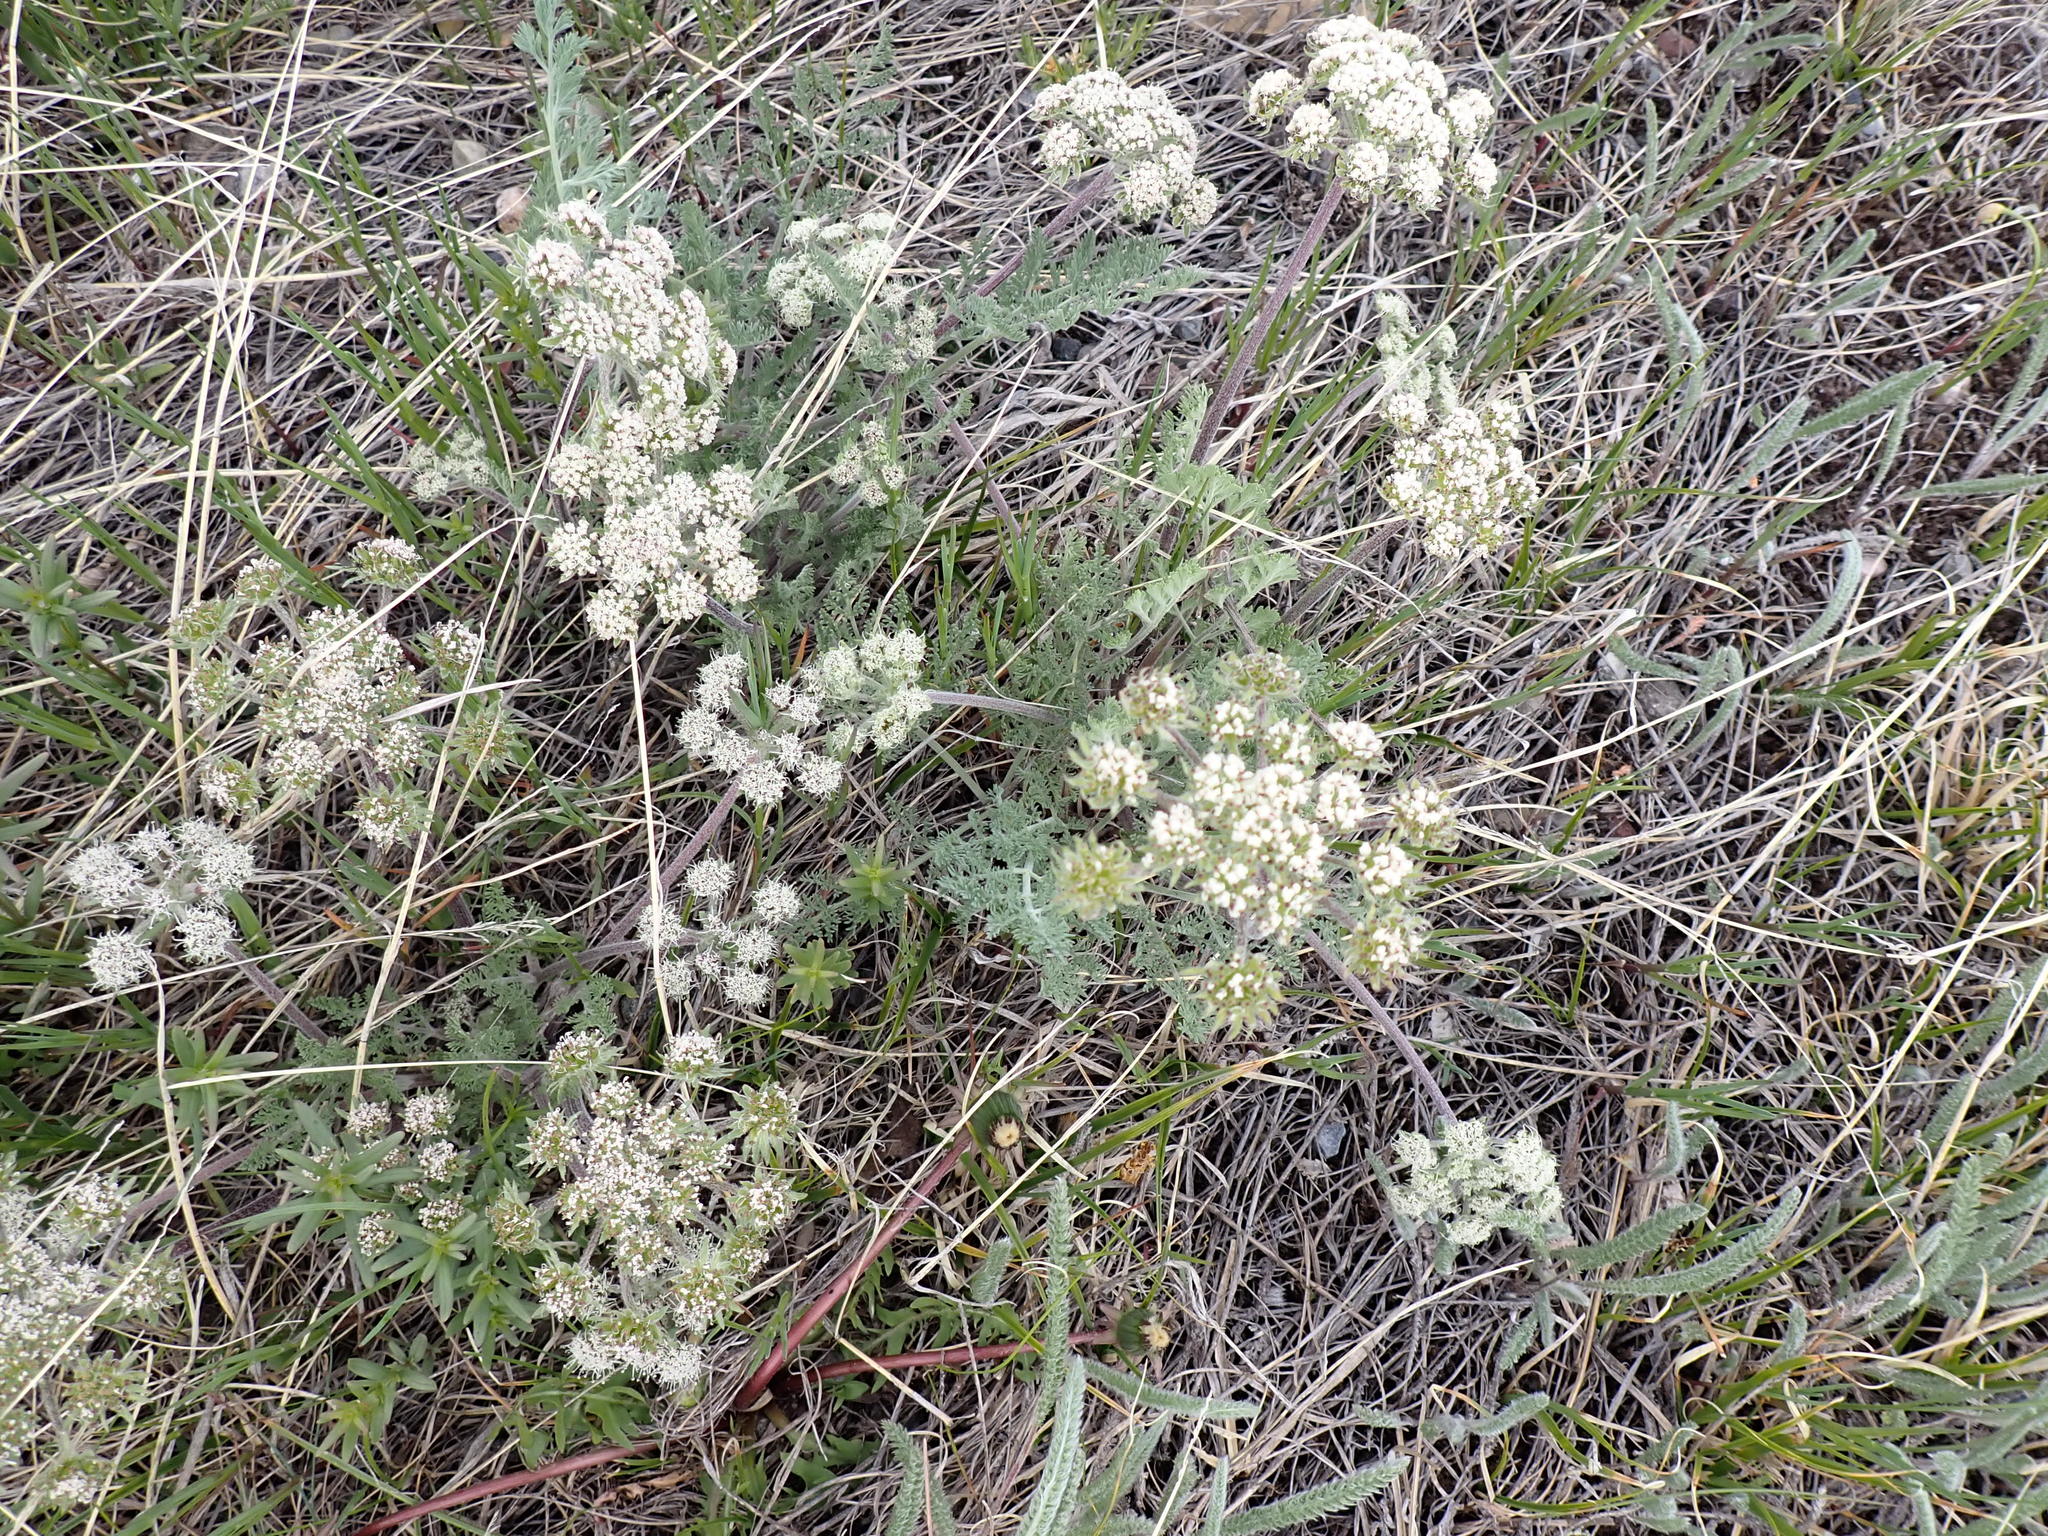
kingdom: Plantae
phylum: Tracheophyta
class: Magnoliopsida
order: Apiales
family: Apiaceae
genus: Lomatium
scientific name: Lomatium macrocarpum
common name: Big-seed biscuitroot
